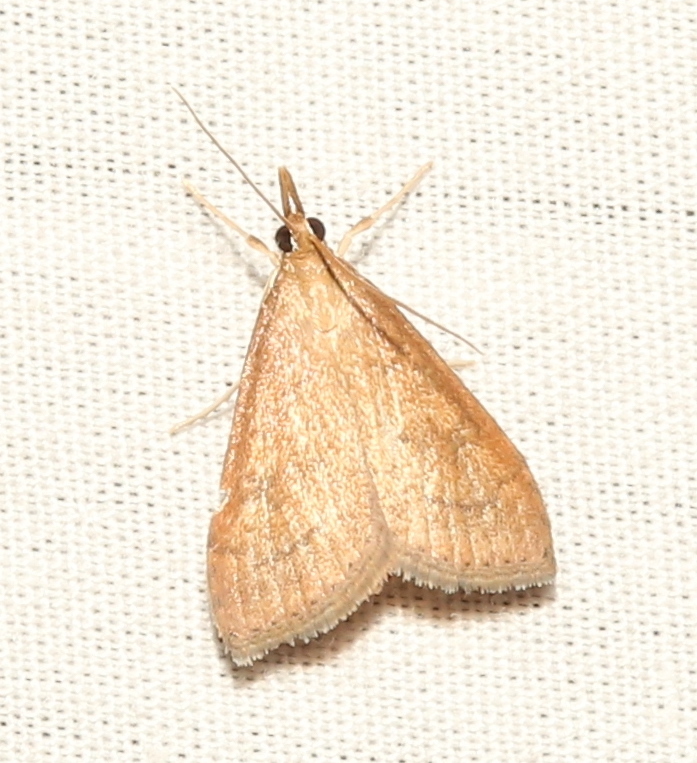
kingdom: Animalia
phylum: Arthropoda
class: Insecta
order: Lepidoptera
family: Crambidae
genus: Udea
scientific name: Udea rubigalis
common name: Celery leaftier moth
